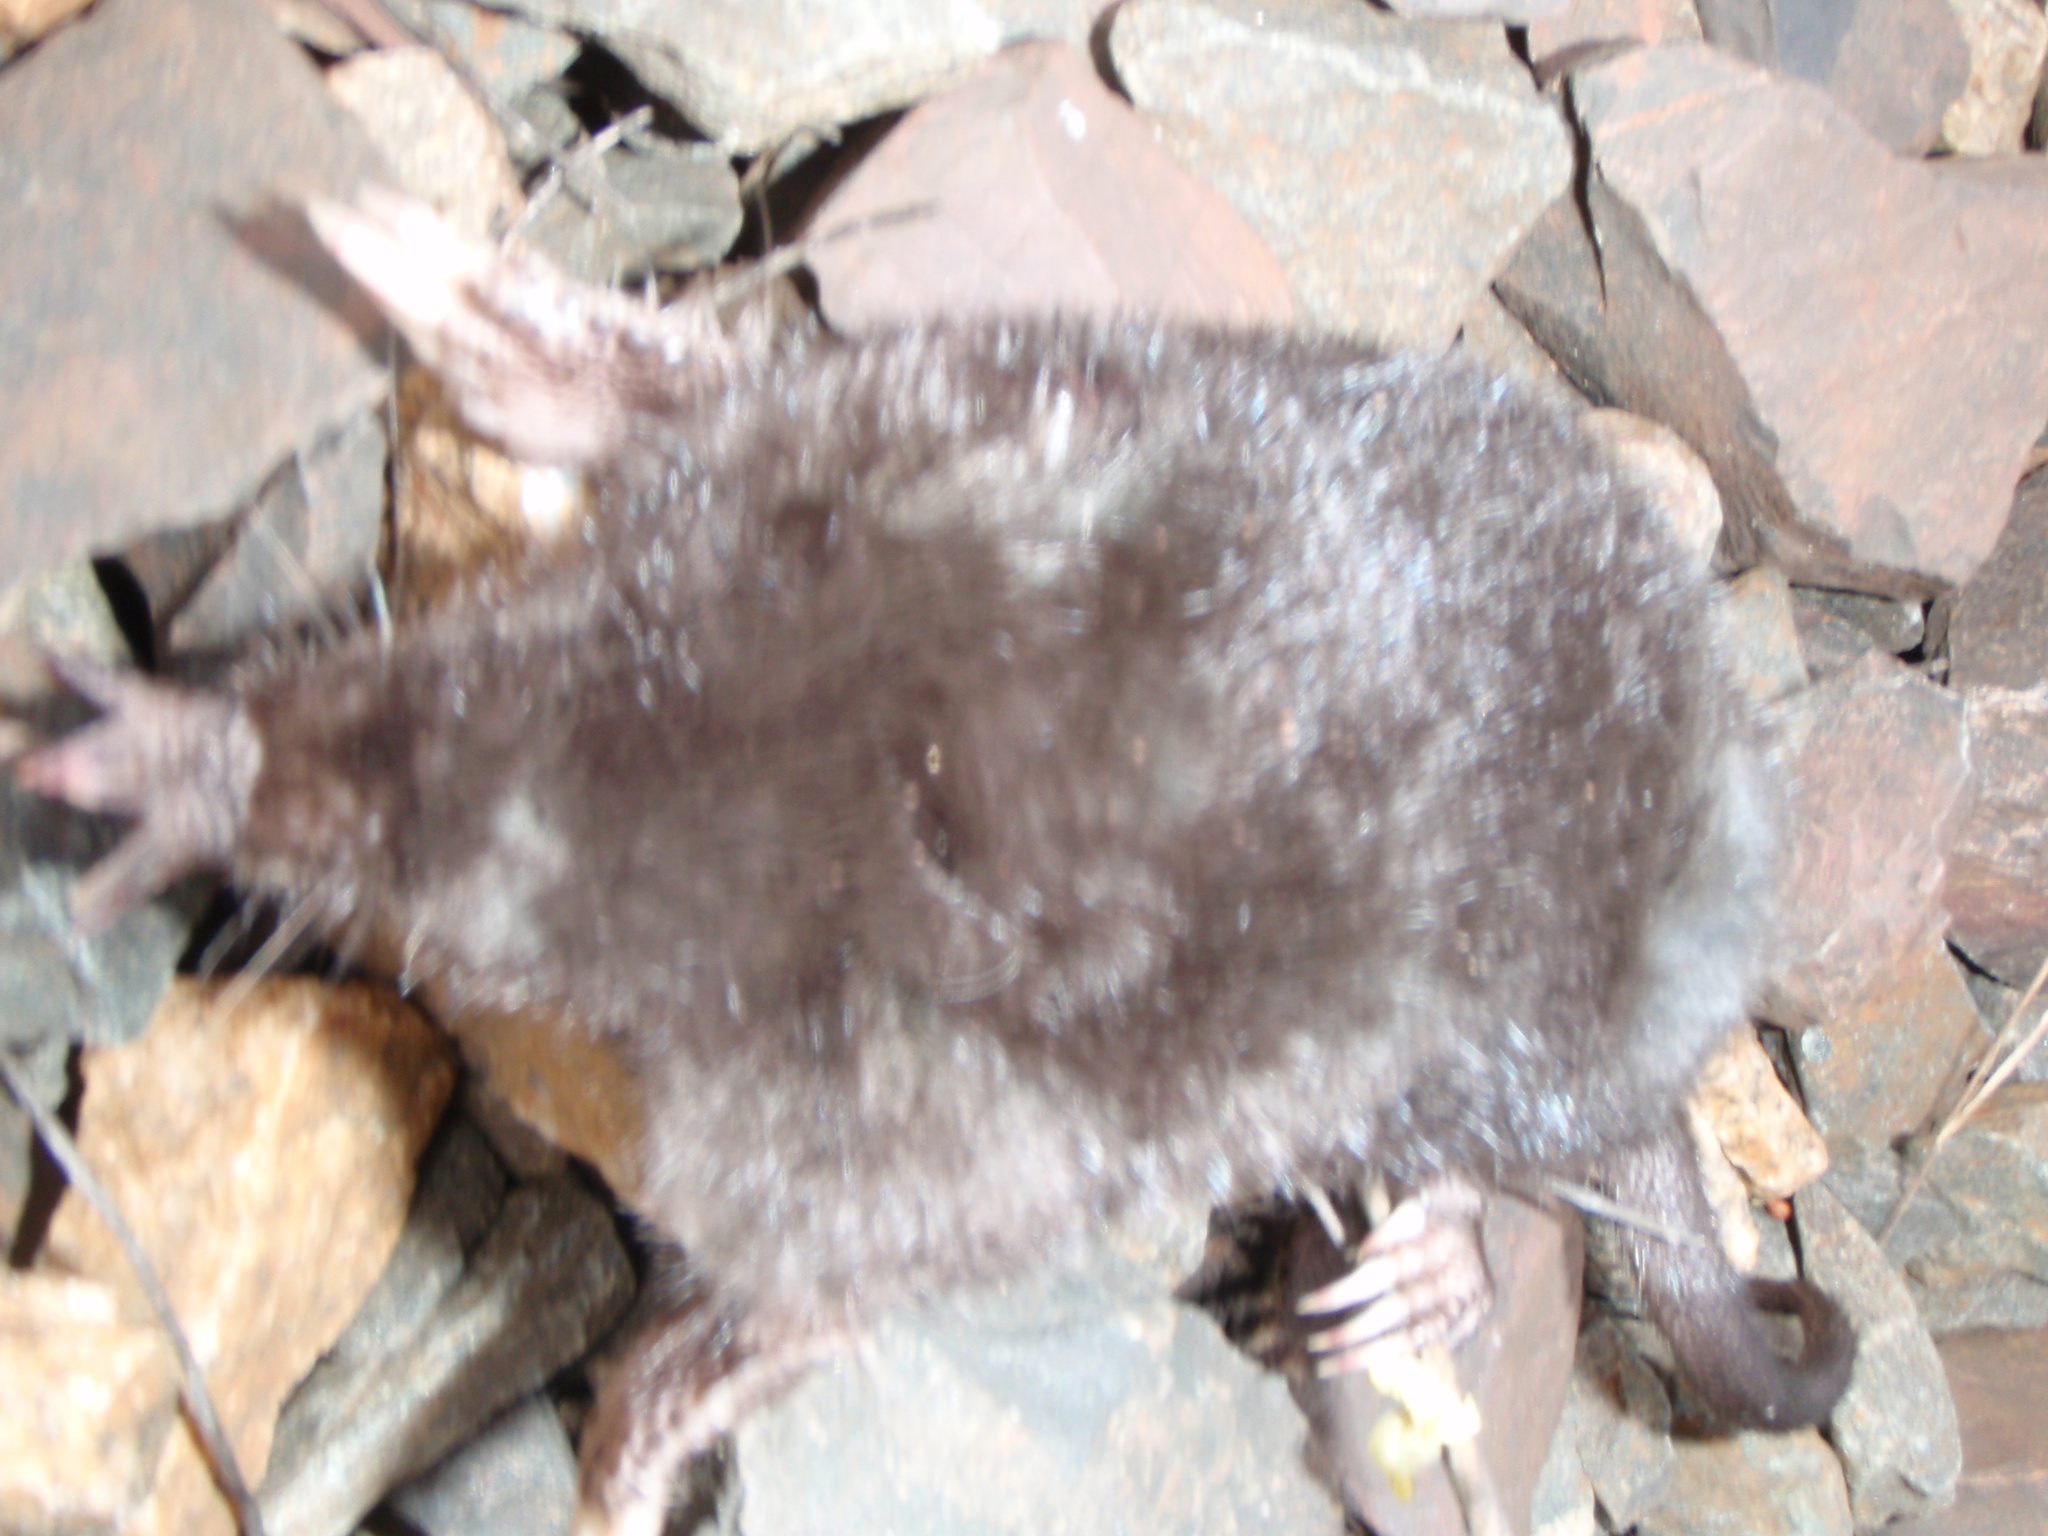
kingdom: Animalia
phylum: Chordata
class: Mammalia
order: Soricomorpha
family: Talpidae
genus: Condylura
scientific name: Condylura cristata
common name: Star-nosed mole
